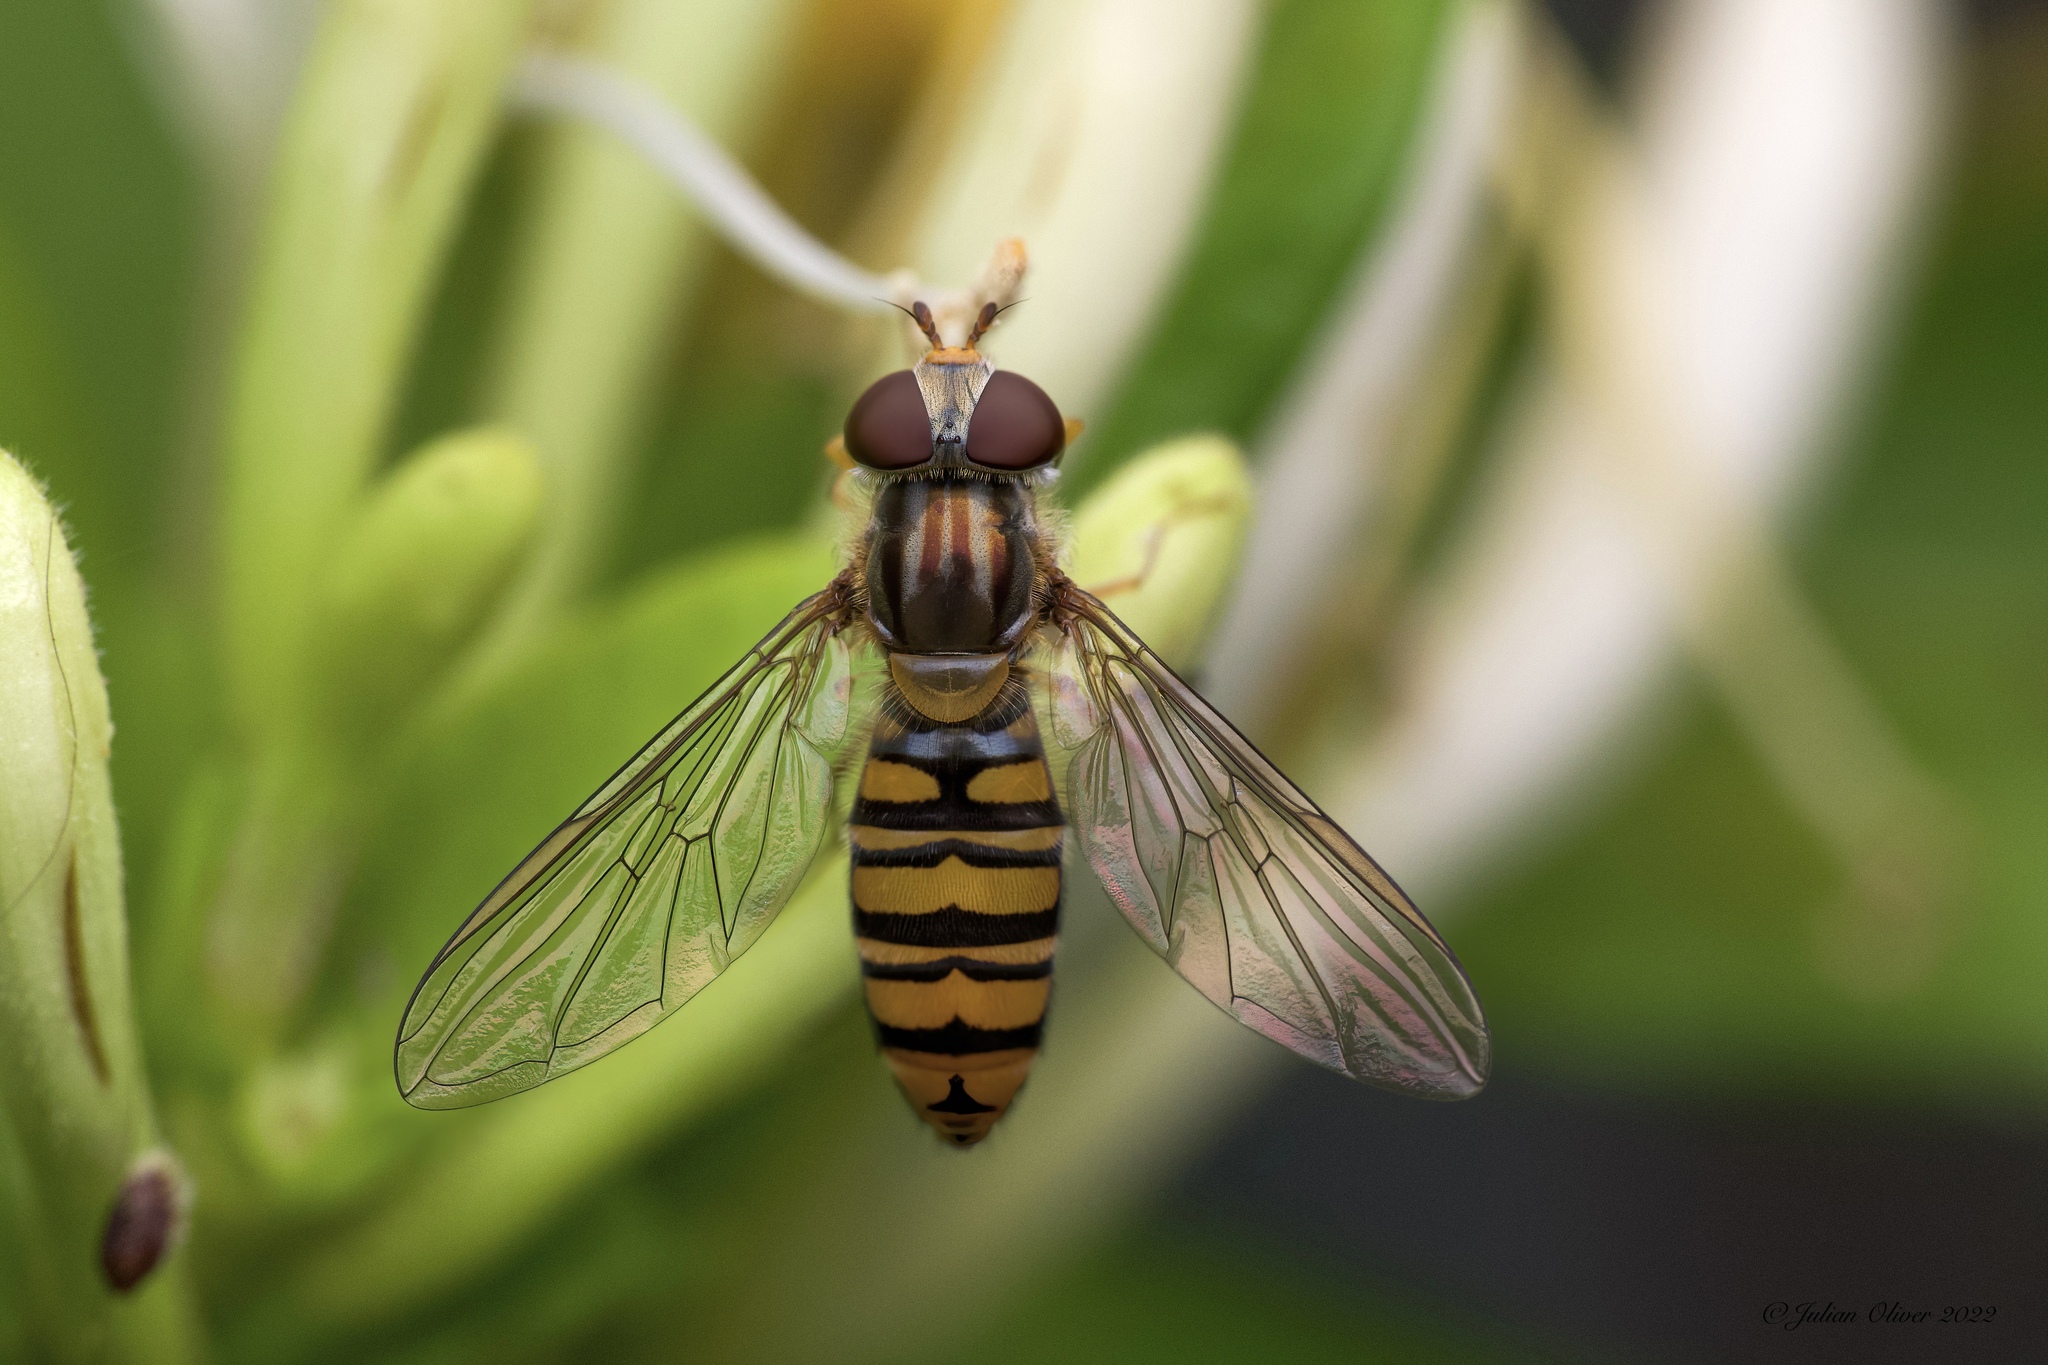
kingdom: Animalia
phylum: Arthropoda
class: Insecta
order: Diptera
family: Syrphidae
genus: Episyrphus
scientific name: Episyrphus balteatus
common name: Marmalade hoverfly
